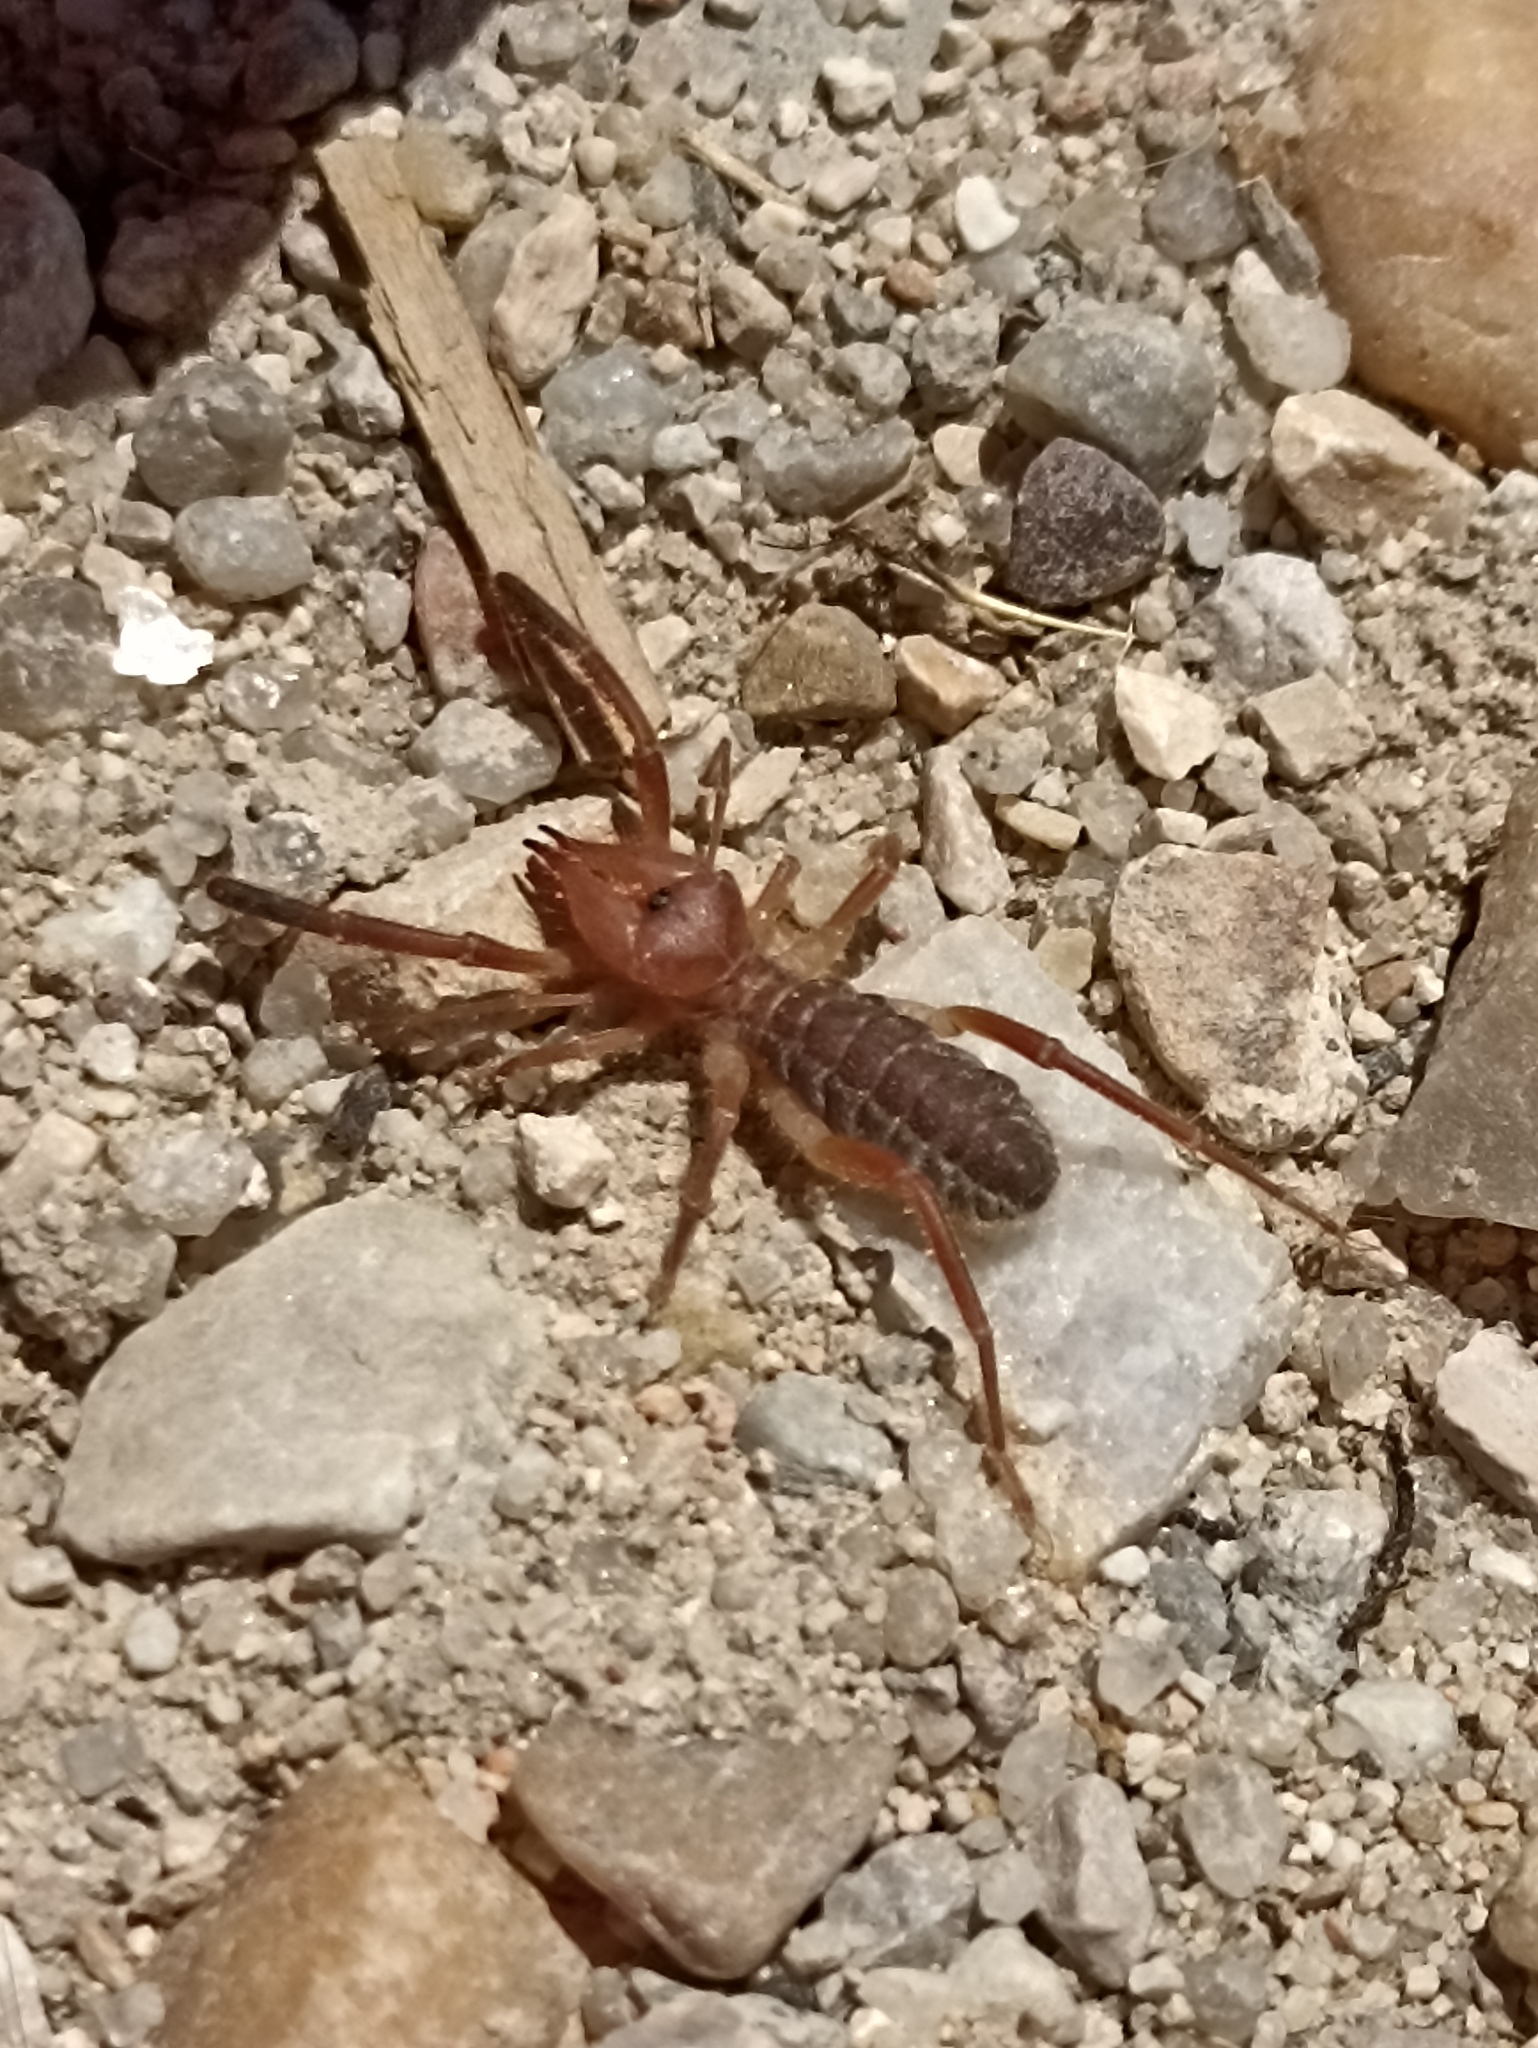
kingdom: Animalia
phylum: Arthropoda
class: Arachnida
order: Solifugae
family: Daesiidae
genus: Gluvia
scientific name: Gluvia dorsalis
